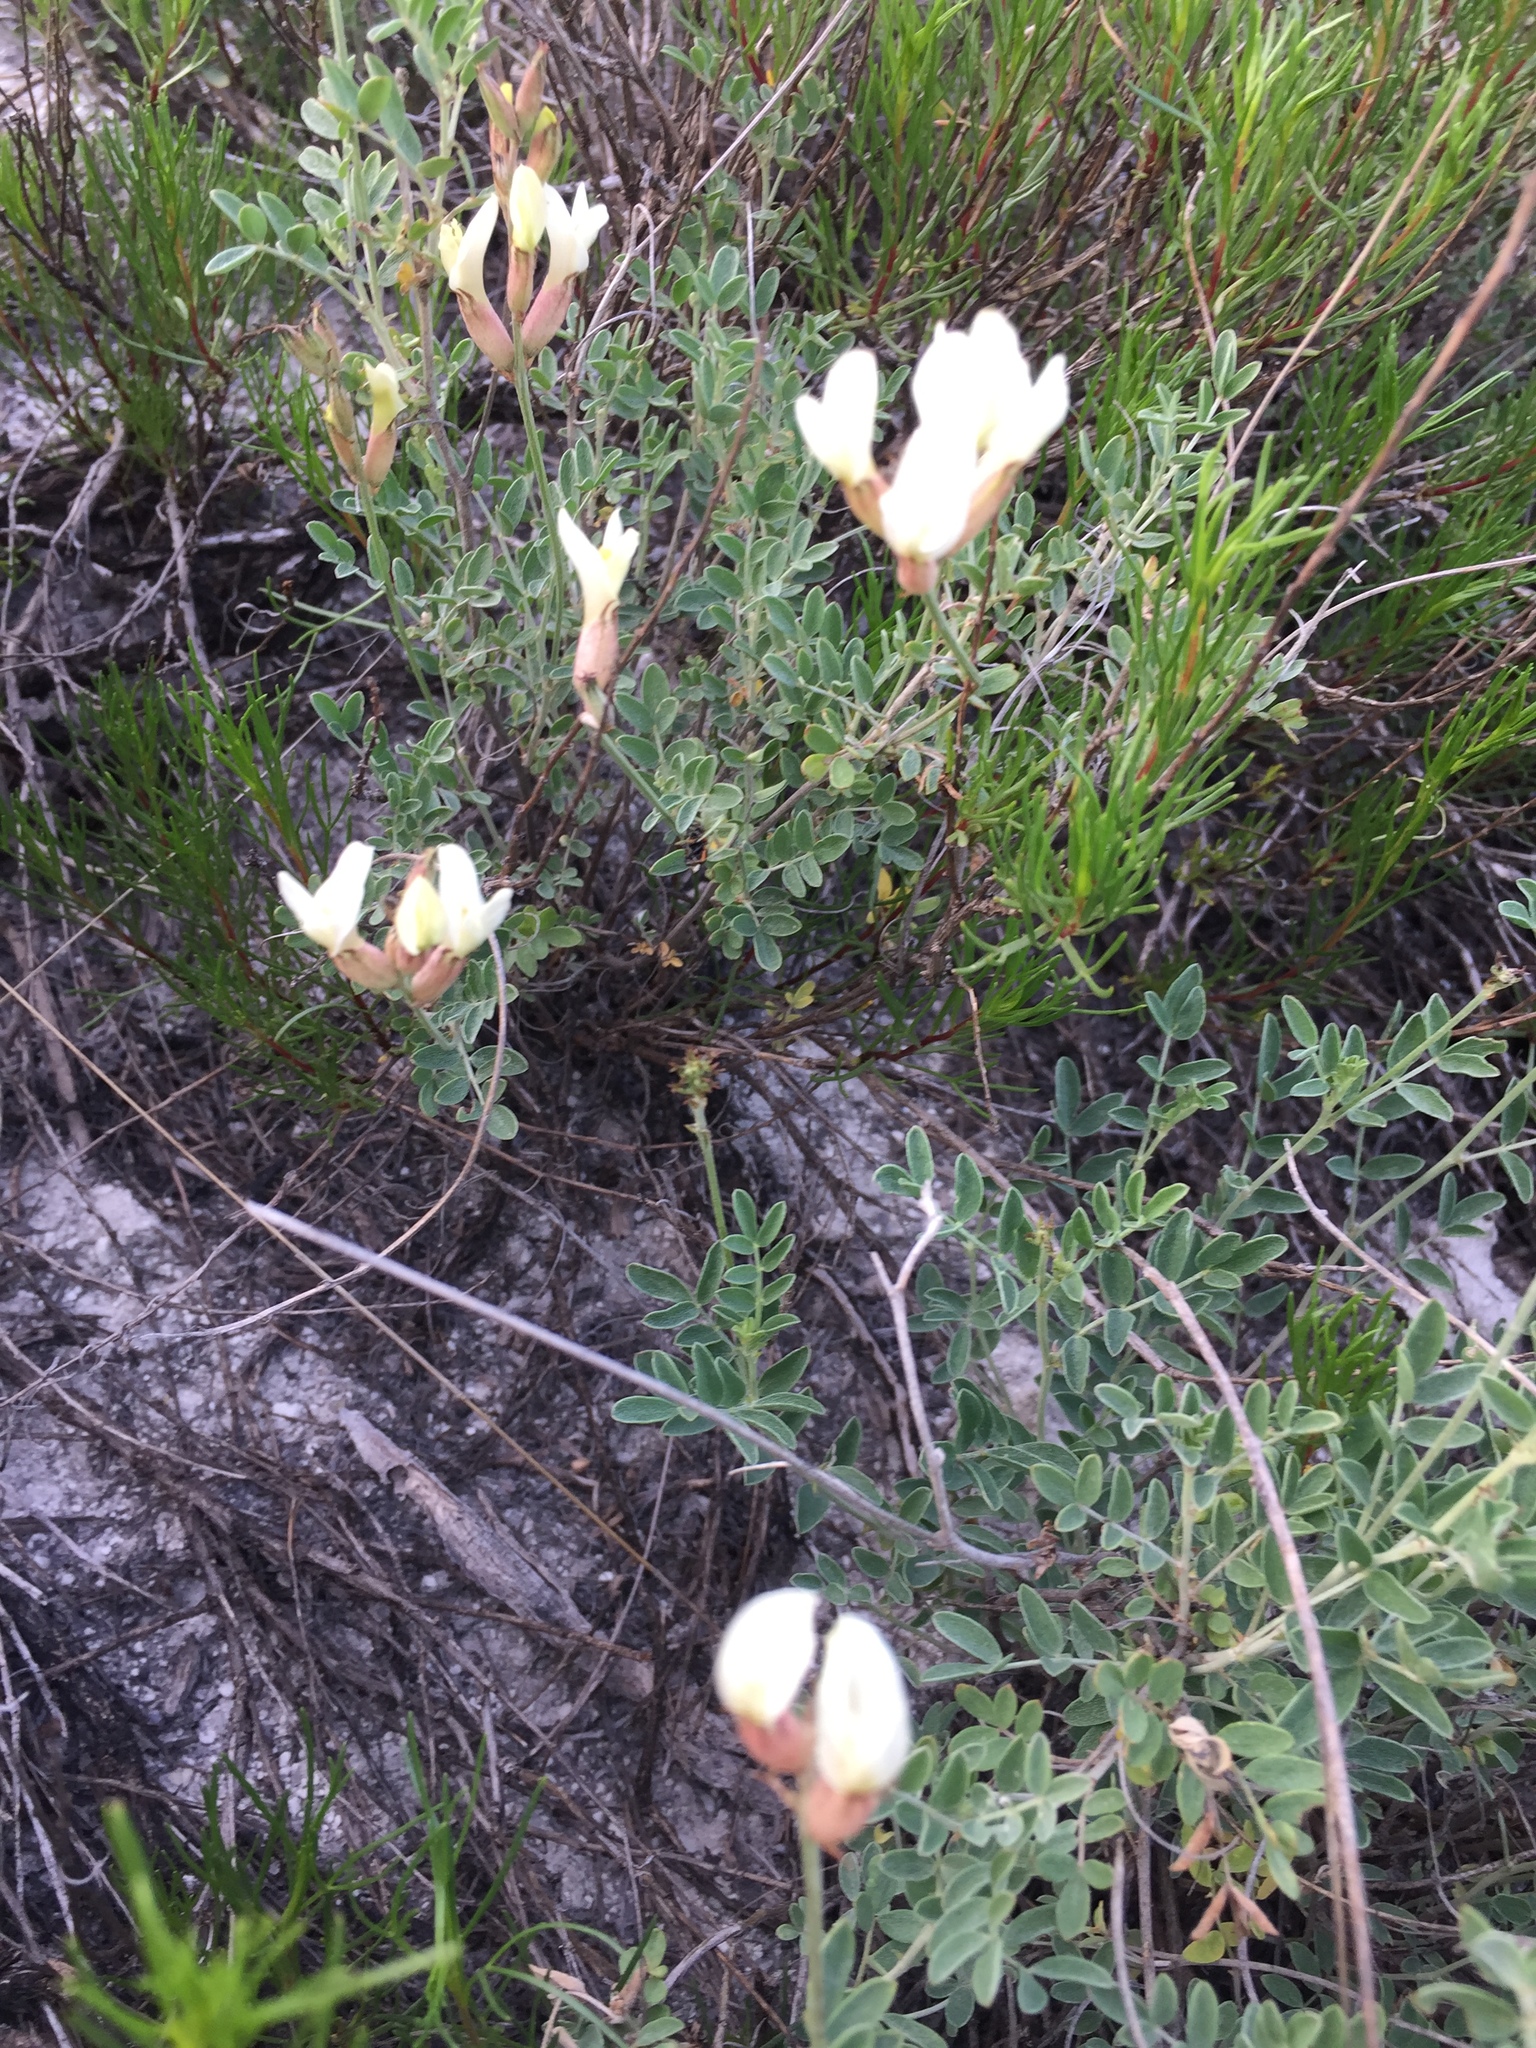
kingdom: Plantae
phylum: Tracheophyta
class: Magnoliopsida
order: Fabales
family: Fabaceae
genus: Astragalus
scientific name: Astragalus albicaulis
